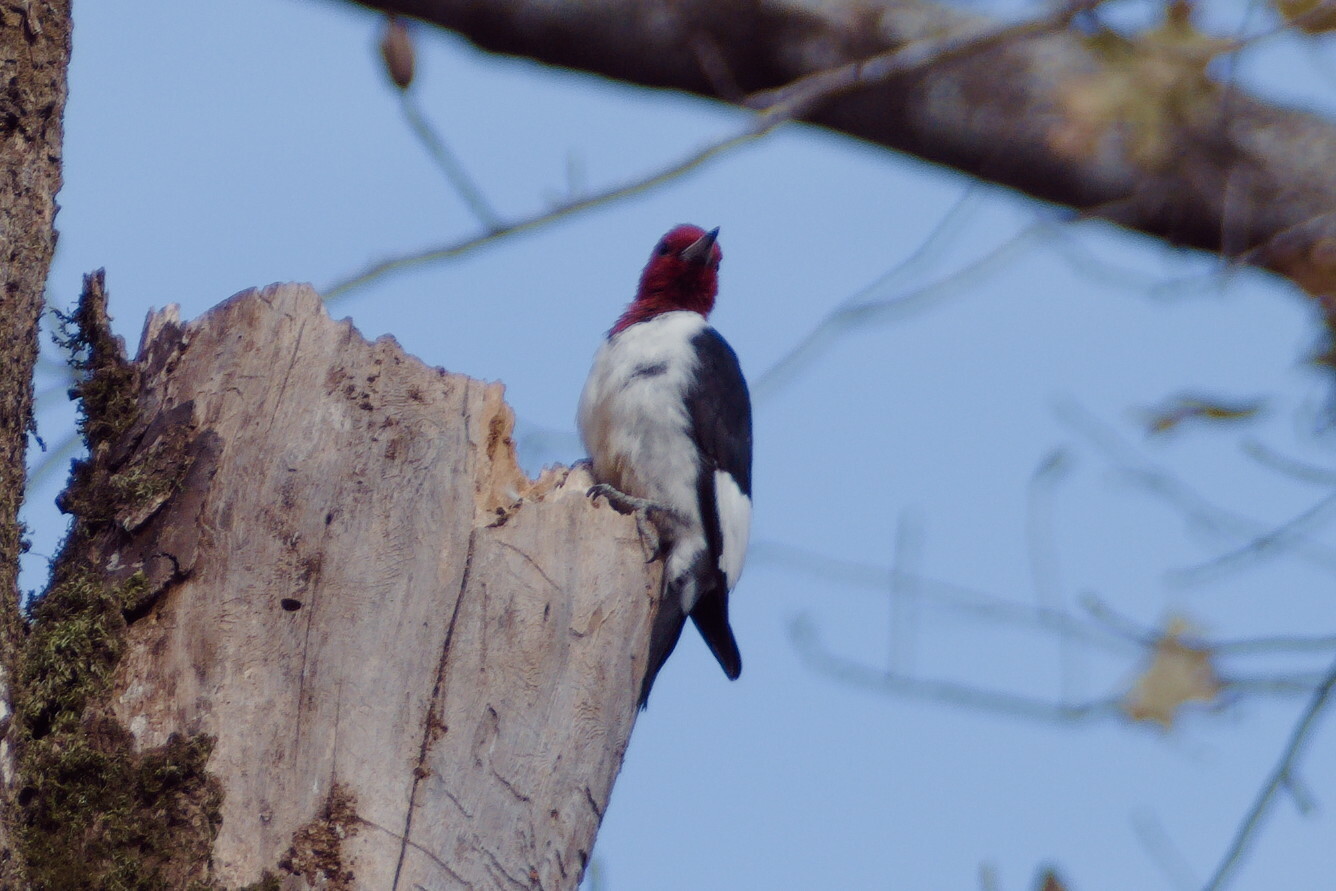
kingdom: Animalia
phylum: Chordata
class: Aves
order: Piciformes
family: Picidae
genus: Melanerpes
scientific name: Melanerpes erythrocephalus
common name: Red-headed woodpecker
